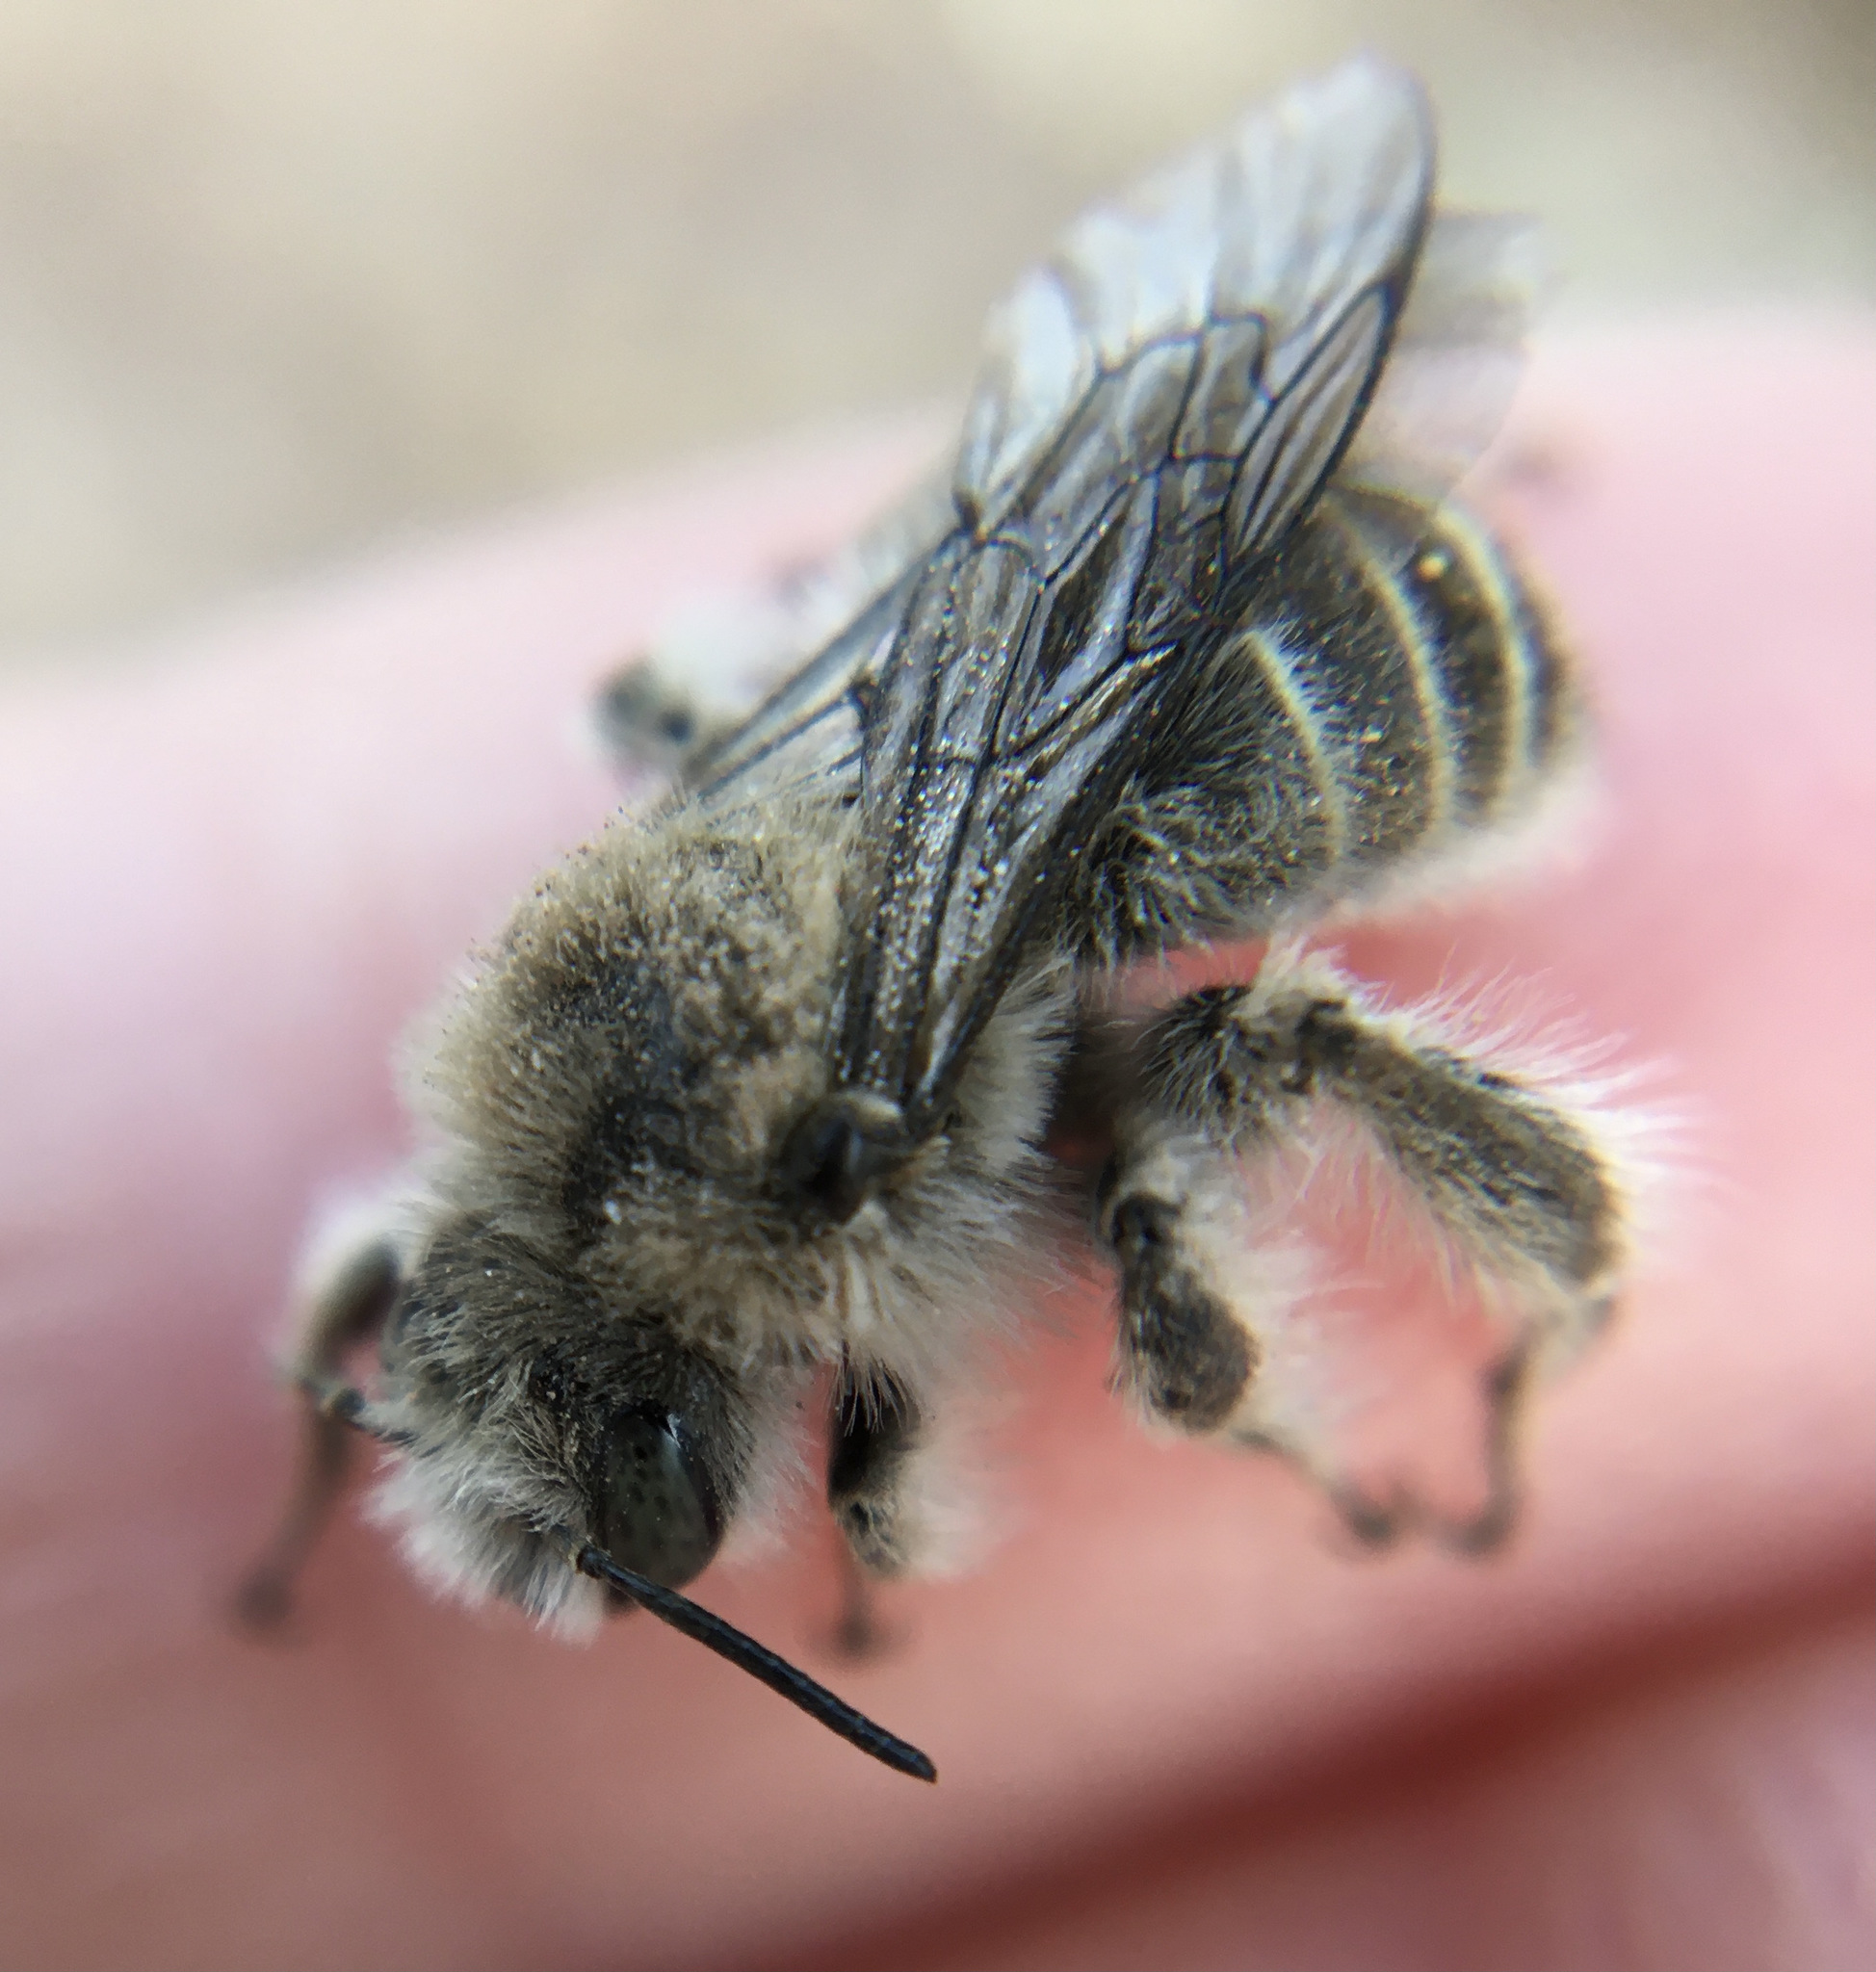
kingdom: Animalia
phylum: Arthropoda
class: Insecta
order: Hymenoptera
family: Apidae
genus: Diadasia
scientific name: Diadasia bituberculata
